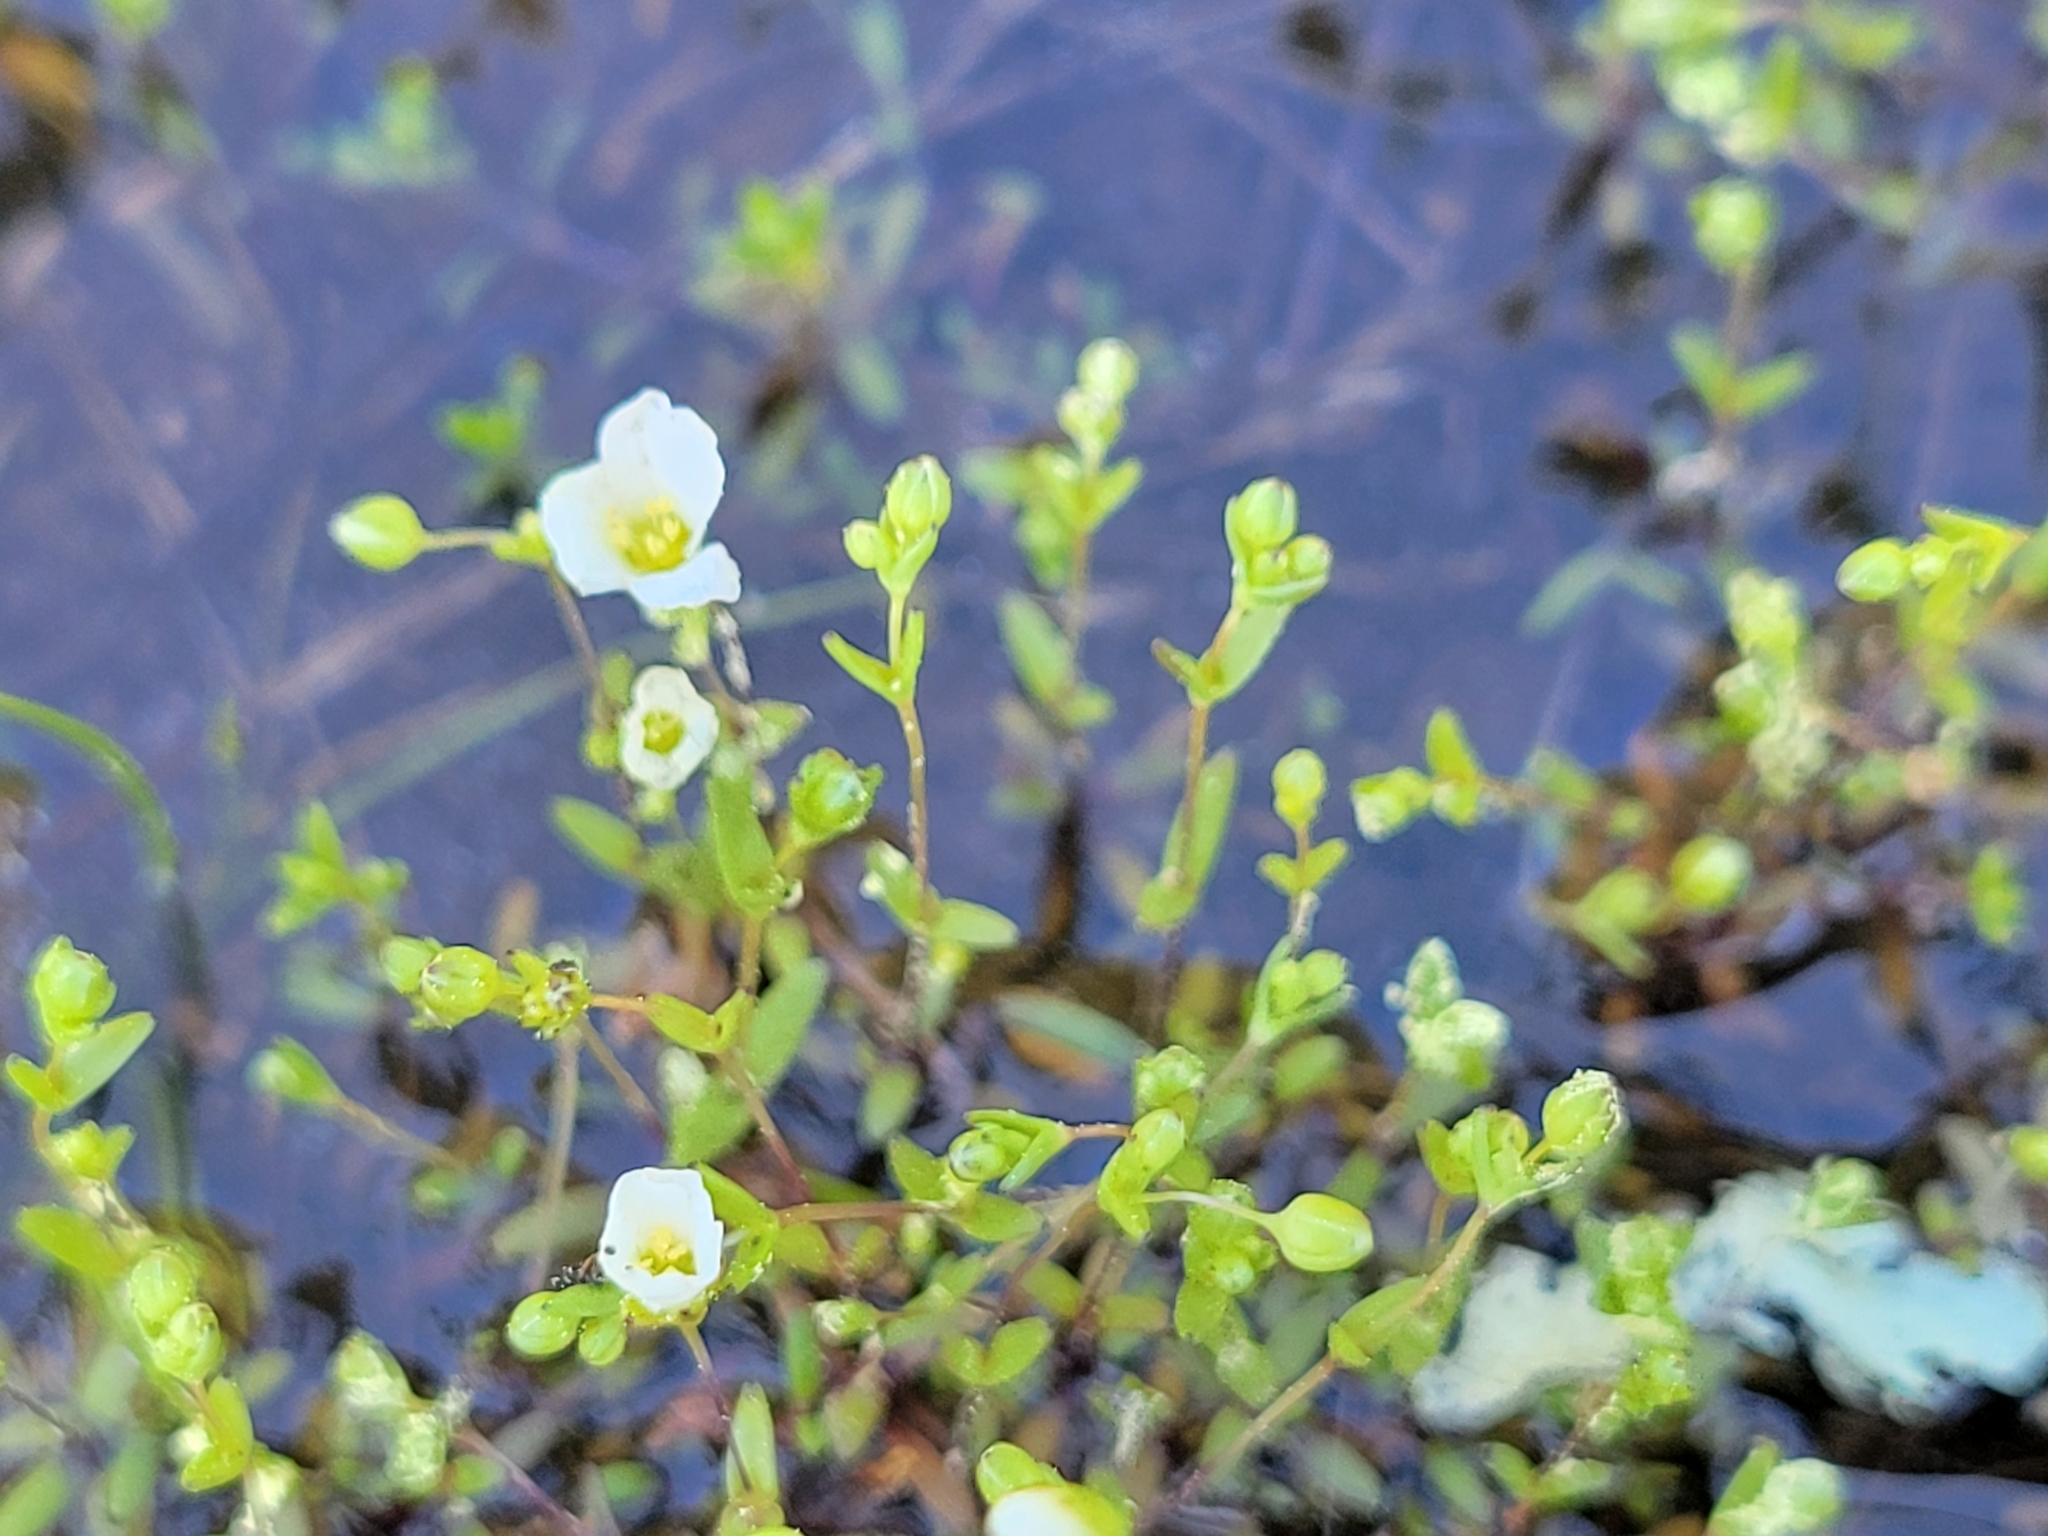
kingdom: Plantae
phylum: Tracheophyta
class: Magnoliopsida
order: Caryophyllales
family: Caryophyllaceae
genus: Geocarpon
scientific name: Geocarpon uniflorum
